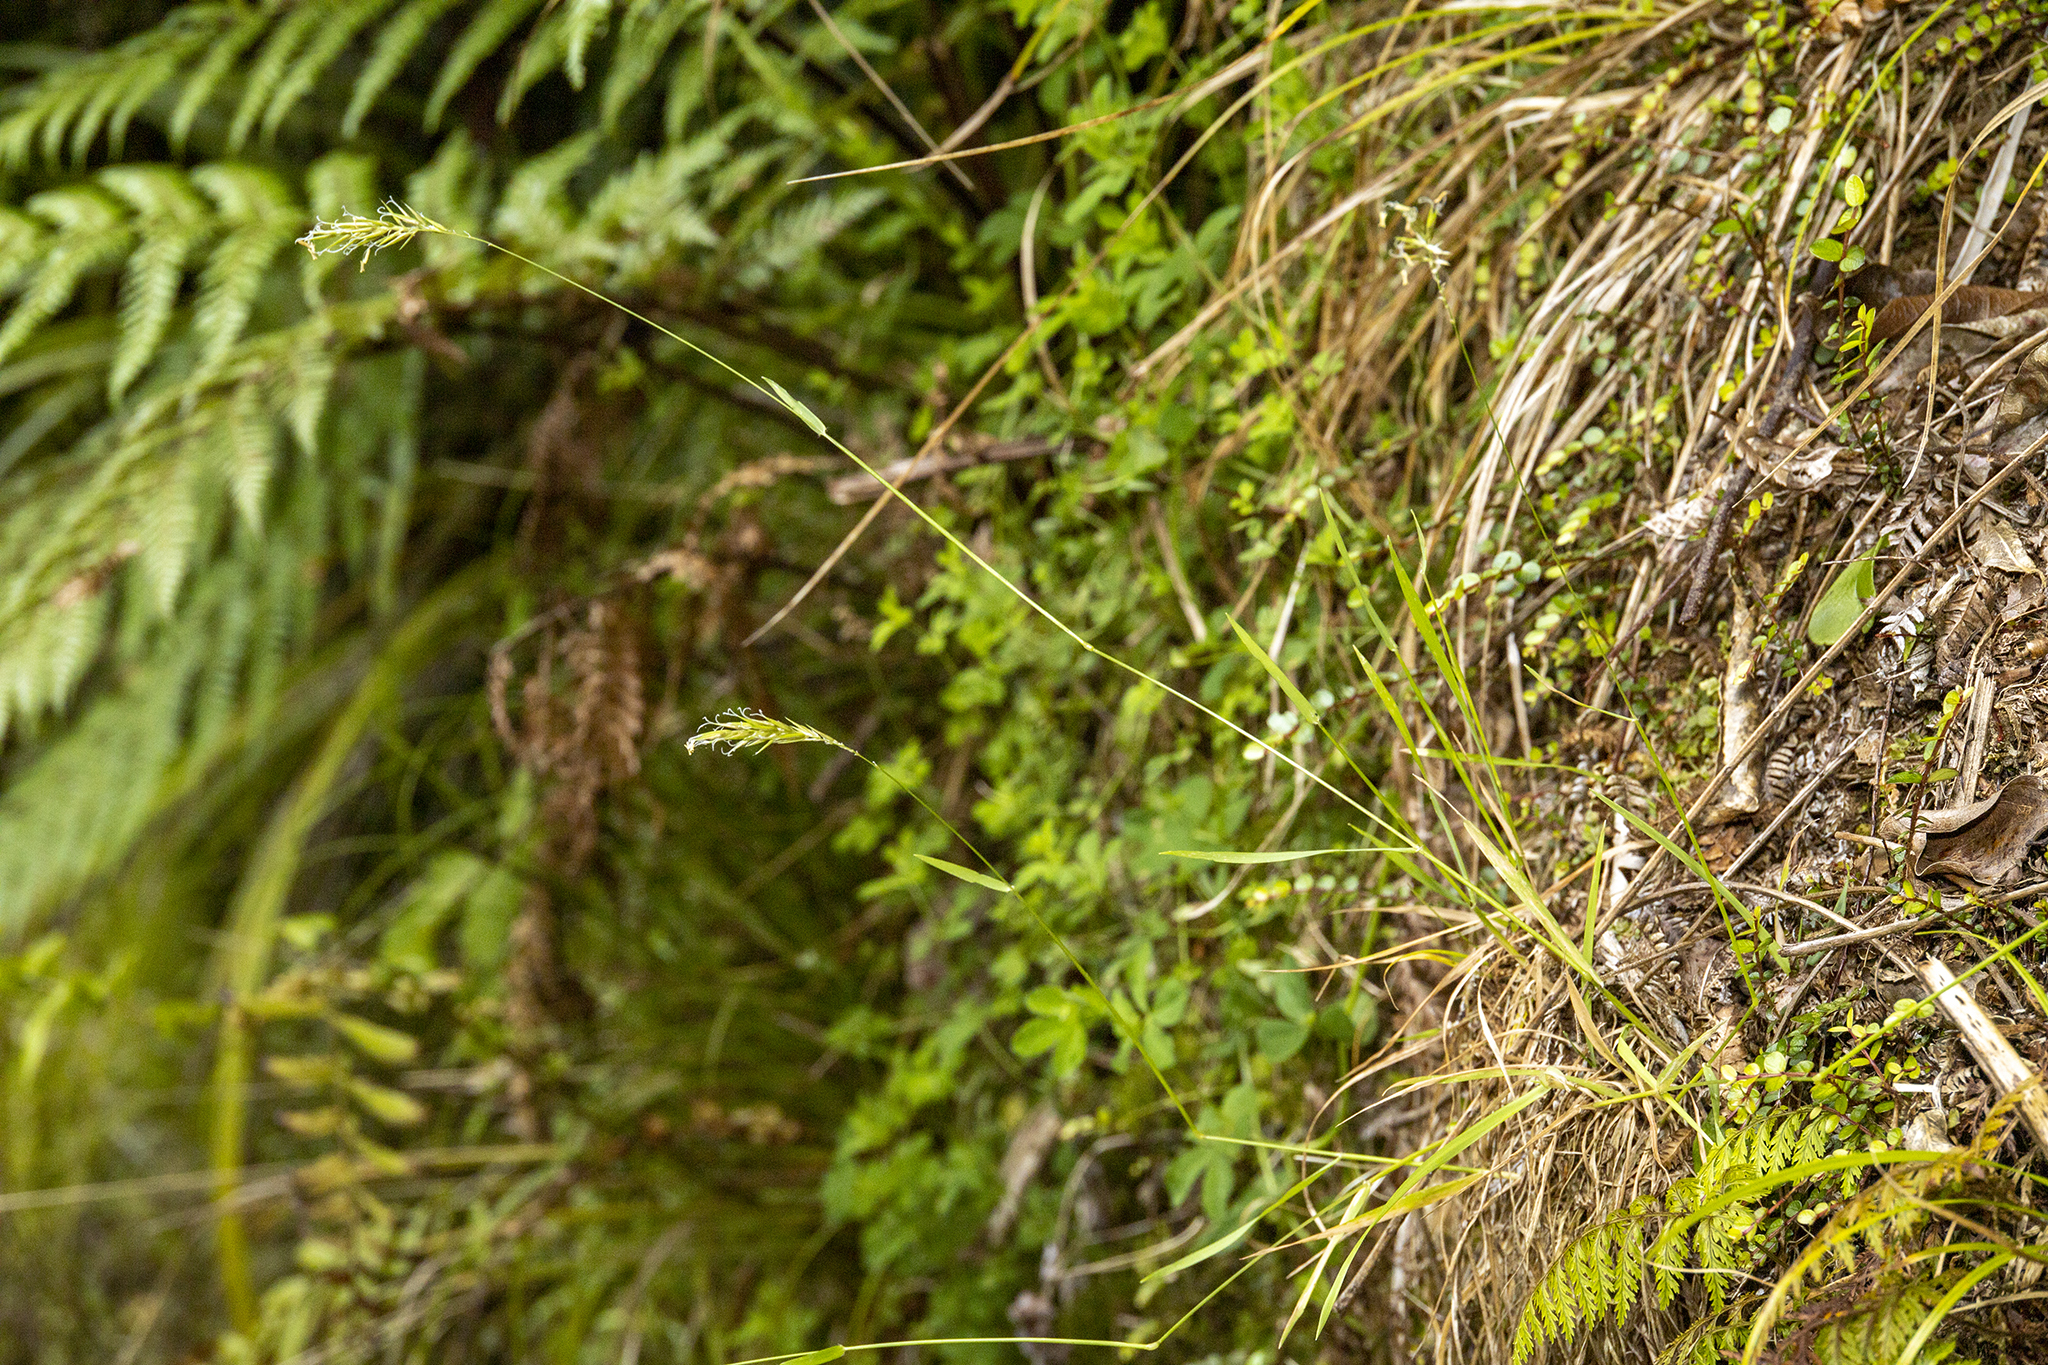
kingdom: Plantae
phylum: Tracheophyta
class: Liliopsida
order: Poales
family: Poaceae
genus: Anthoxanthum
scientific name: Anthoxanthum odoratum
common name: Sweet vernalgrass
